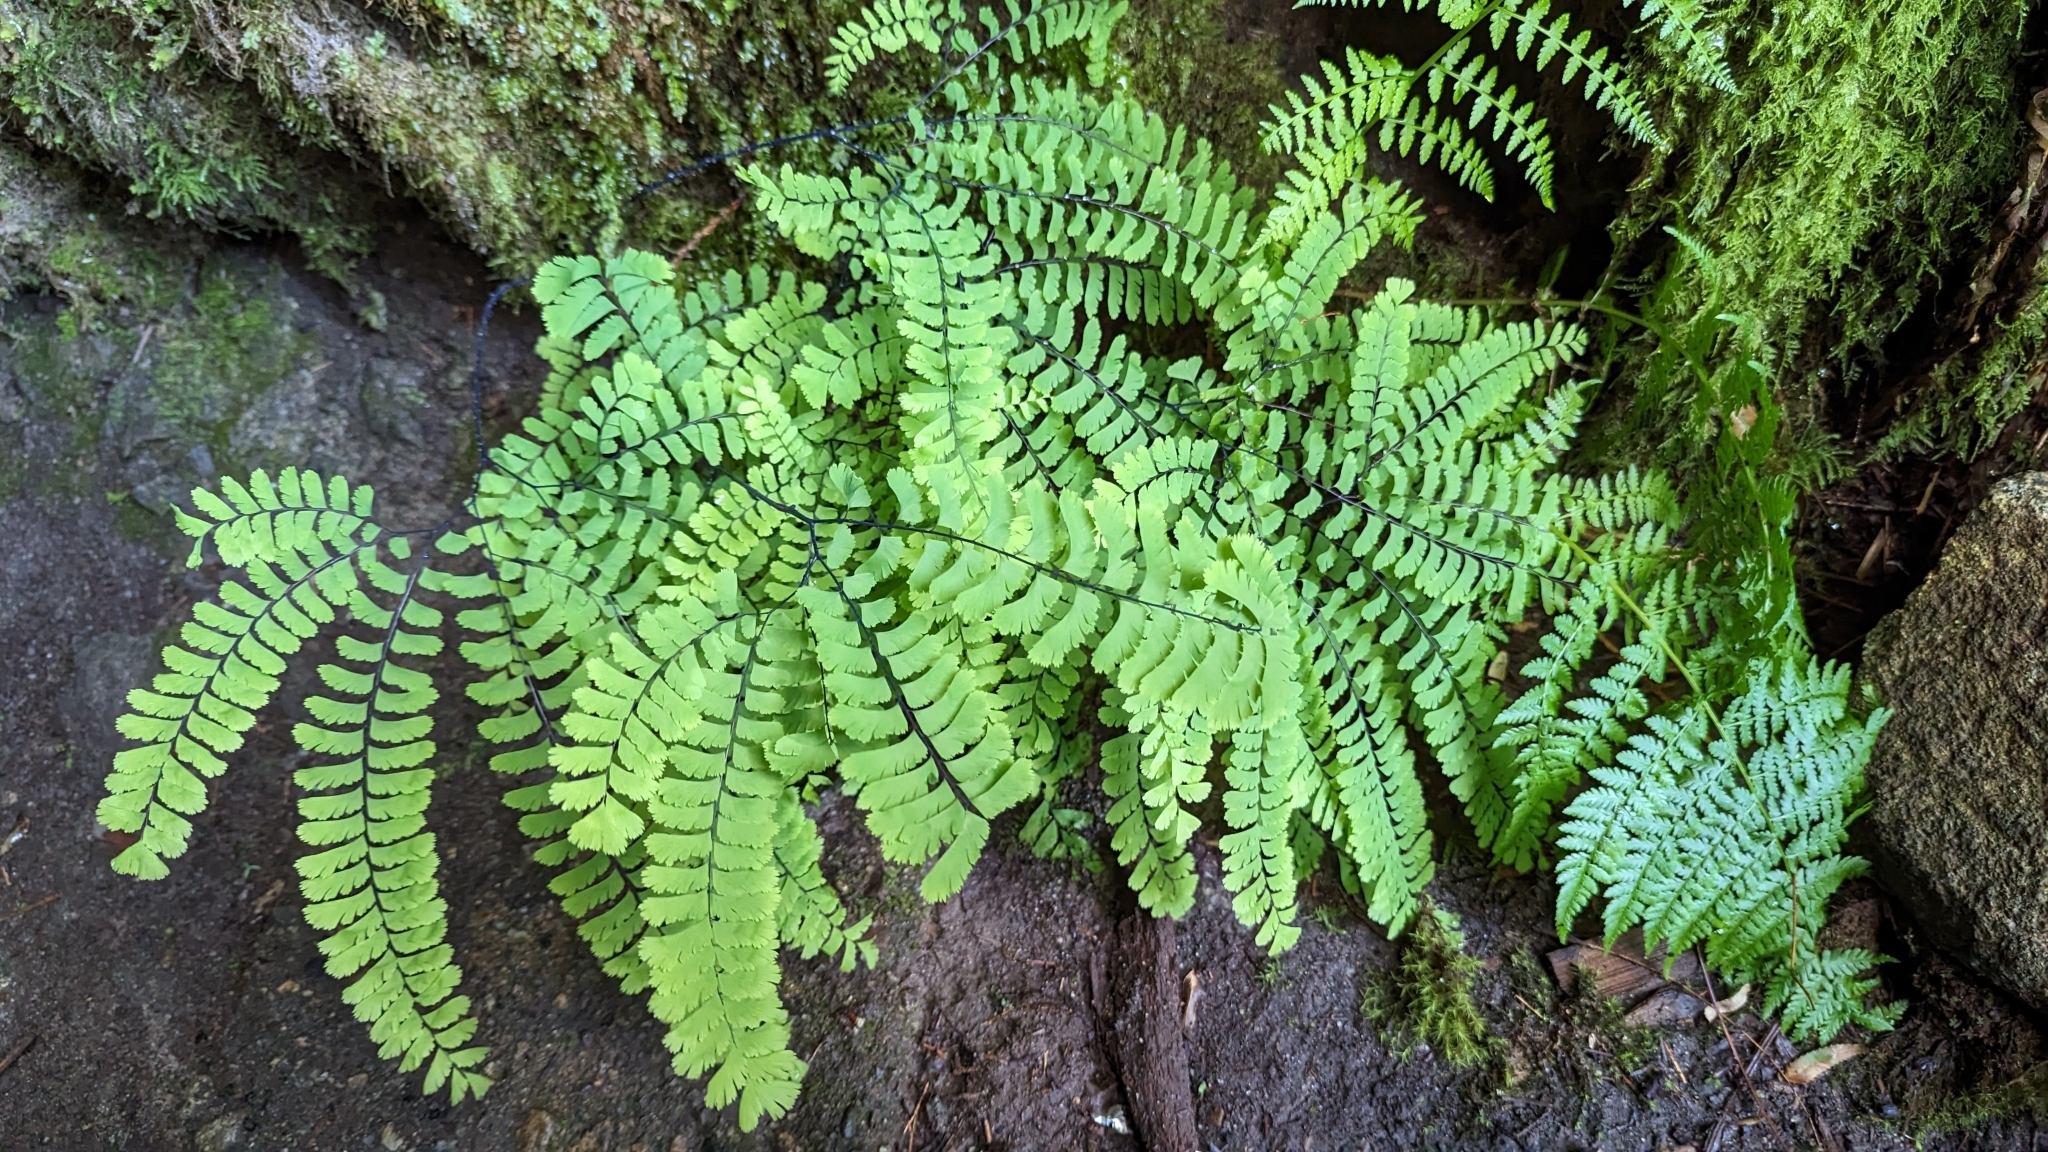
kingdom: Plantae
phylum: Tracheophyta
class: Polypodiopsida
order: Polypodiales
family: Pteridaceae
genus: Adiantum
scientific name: Adiantum aleuticum
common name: Aleutian maidenhair fern
